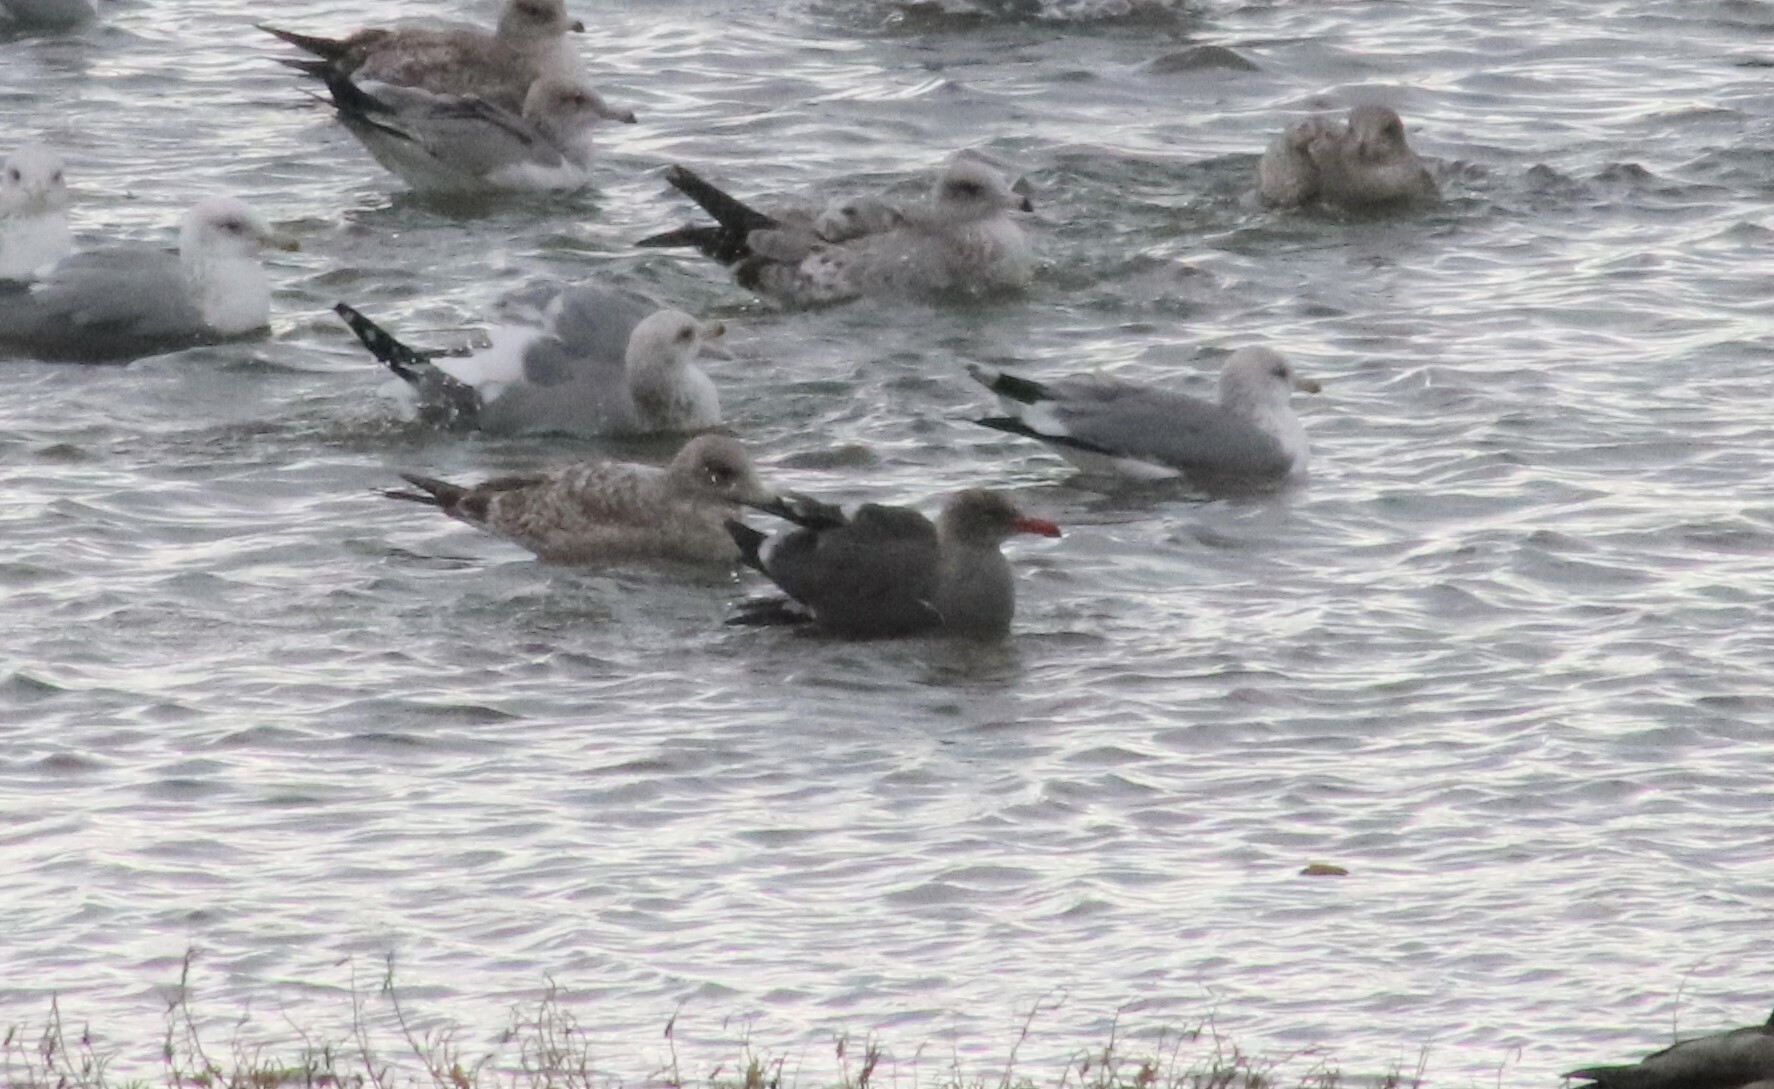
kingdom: Animalia
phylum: Chordata
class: Aves
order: Charadriiformes
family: Laridae
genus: Larus
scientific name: Larus heermanni
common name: Heermann's gull
